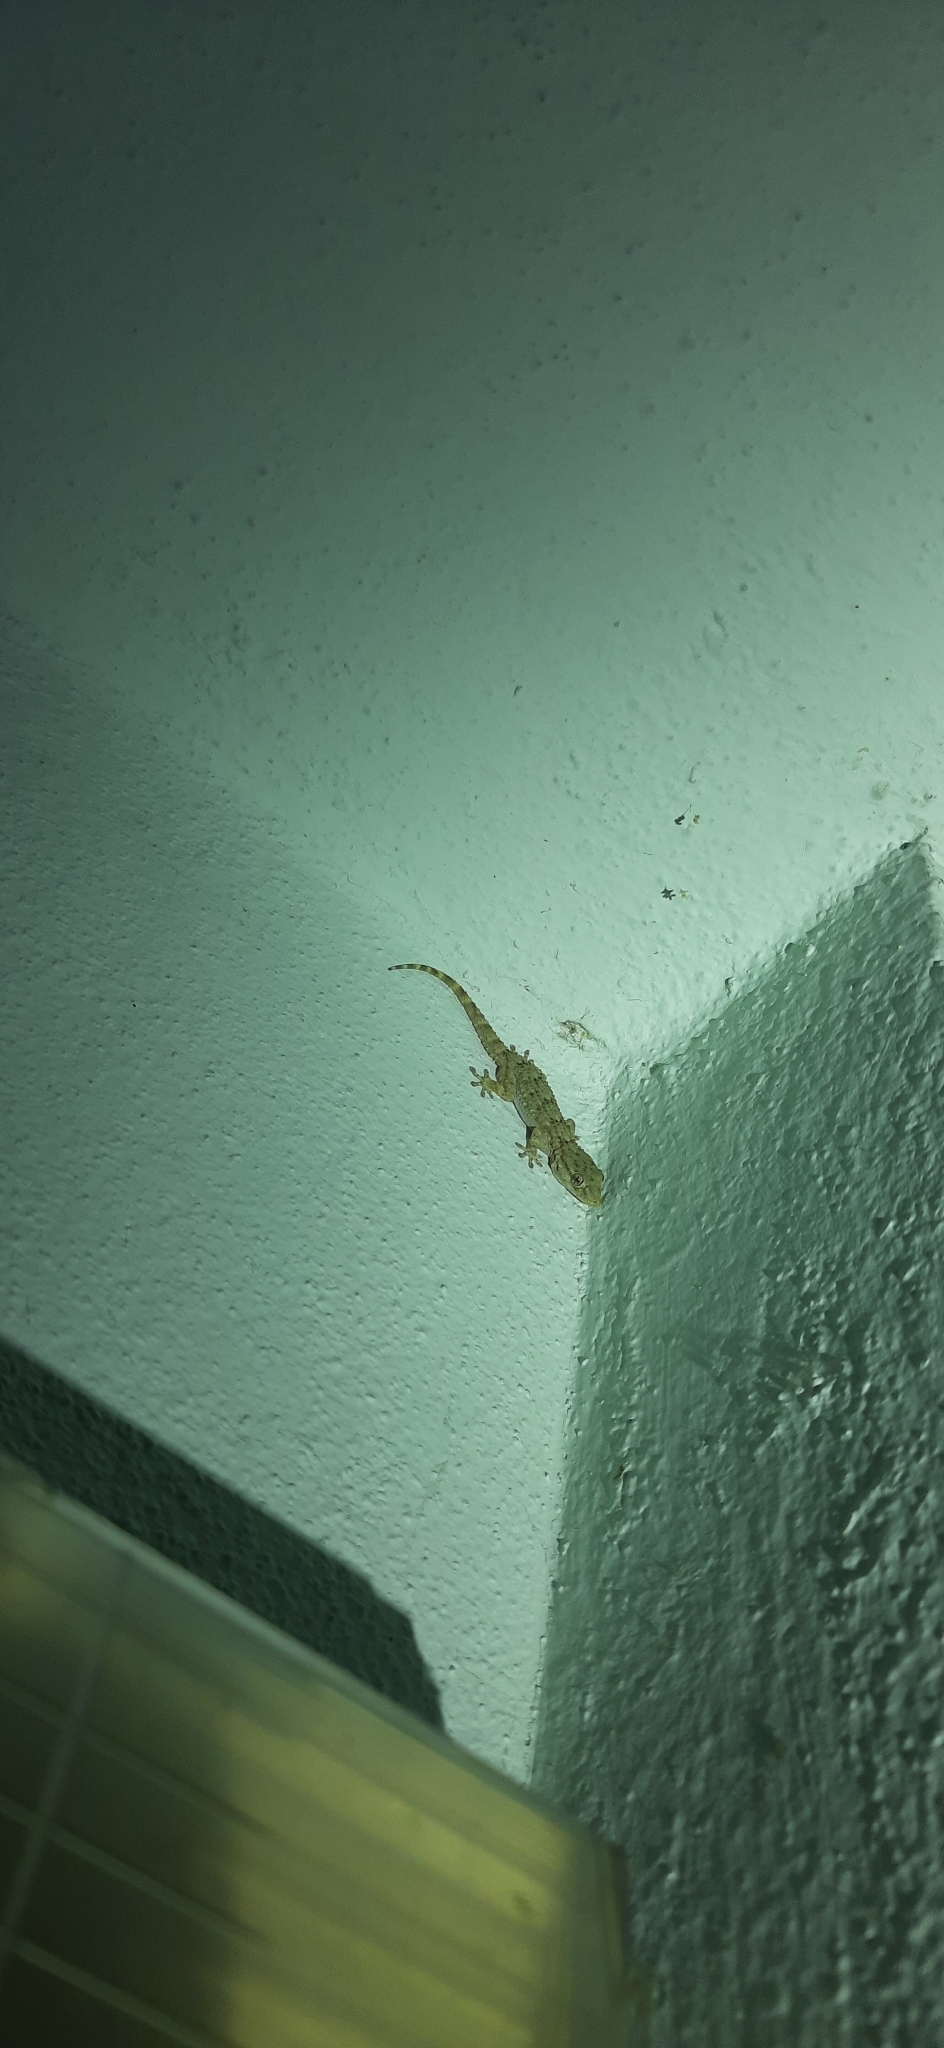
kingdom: Animalia
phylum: Chordata
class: Squamata
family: Phyllodactylidae
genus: Tarentola
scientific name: Tarentola mauritanica
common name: Moorish gecko
